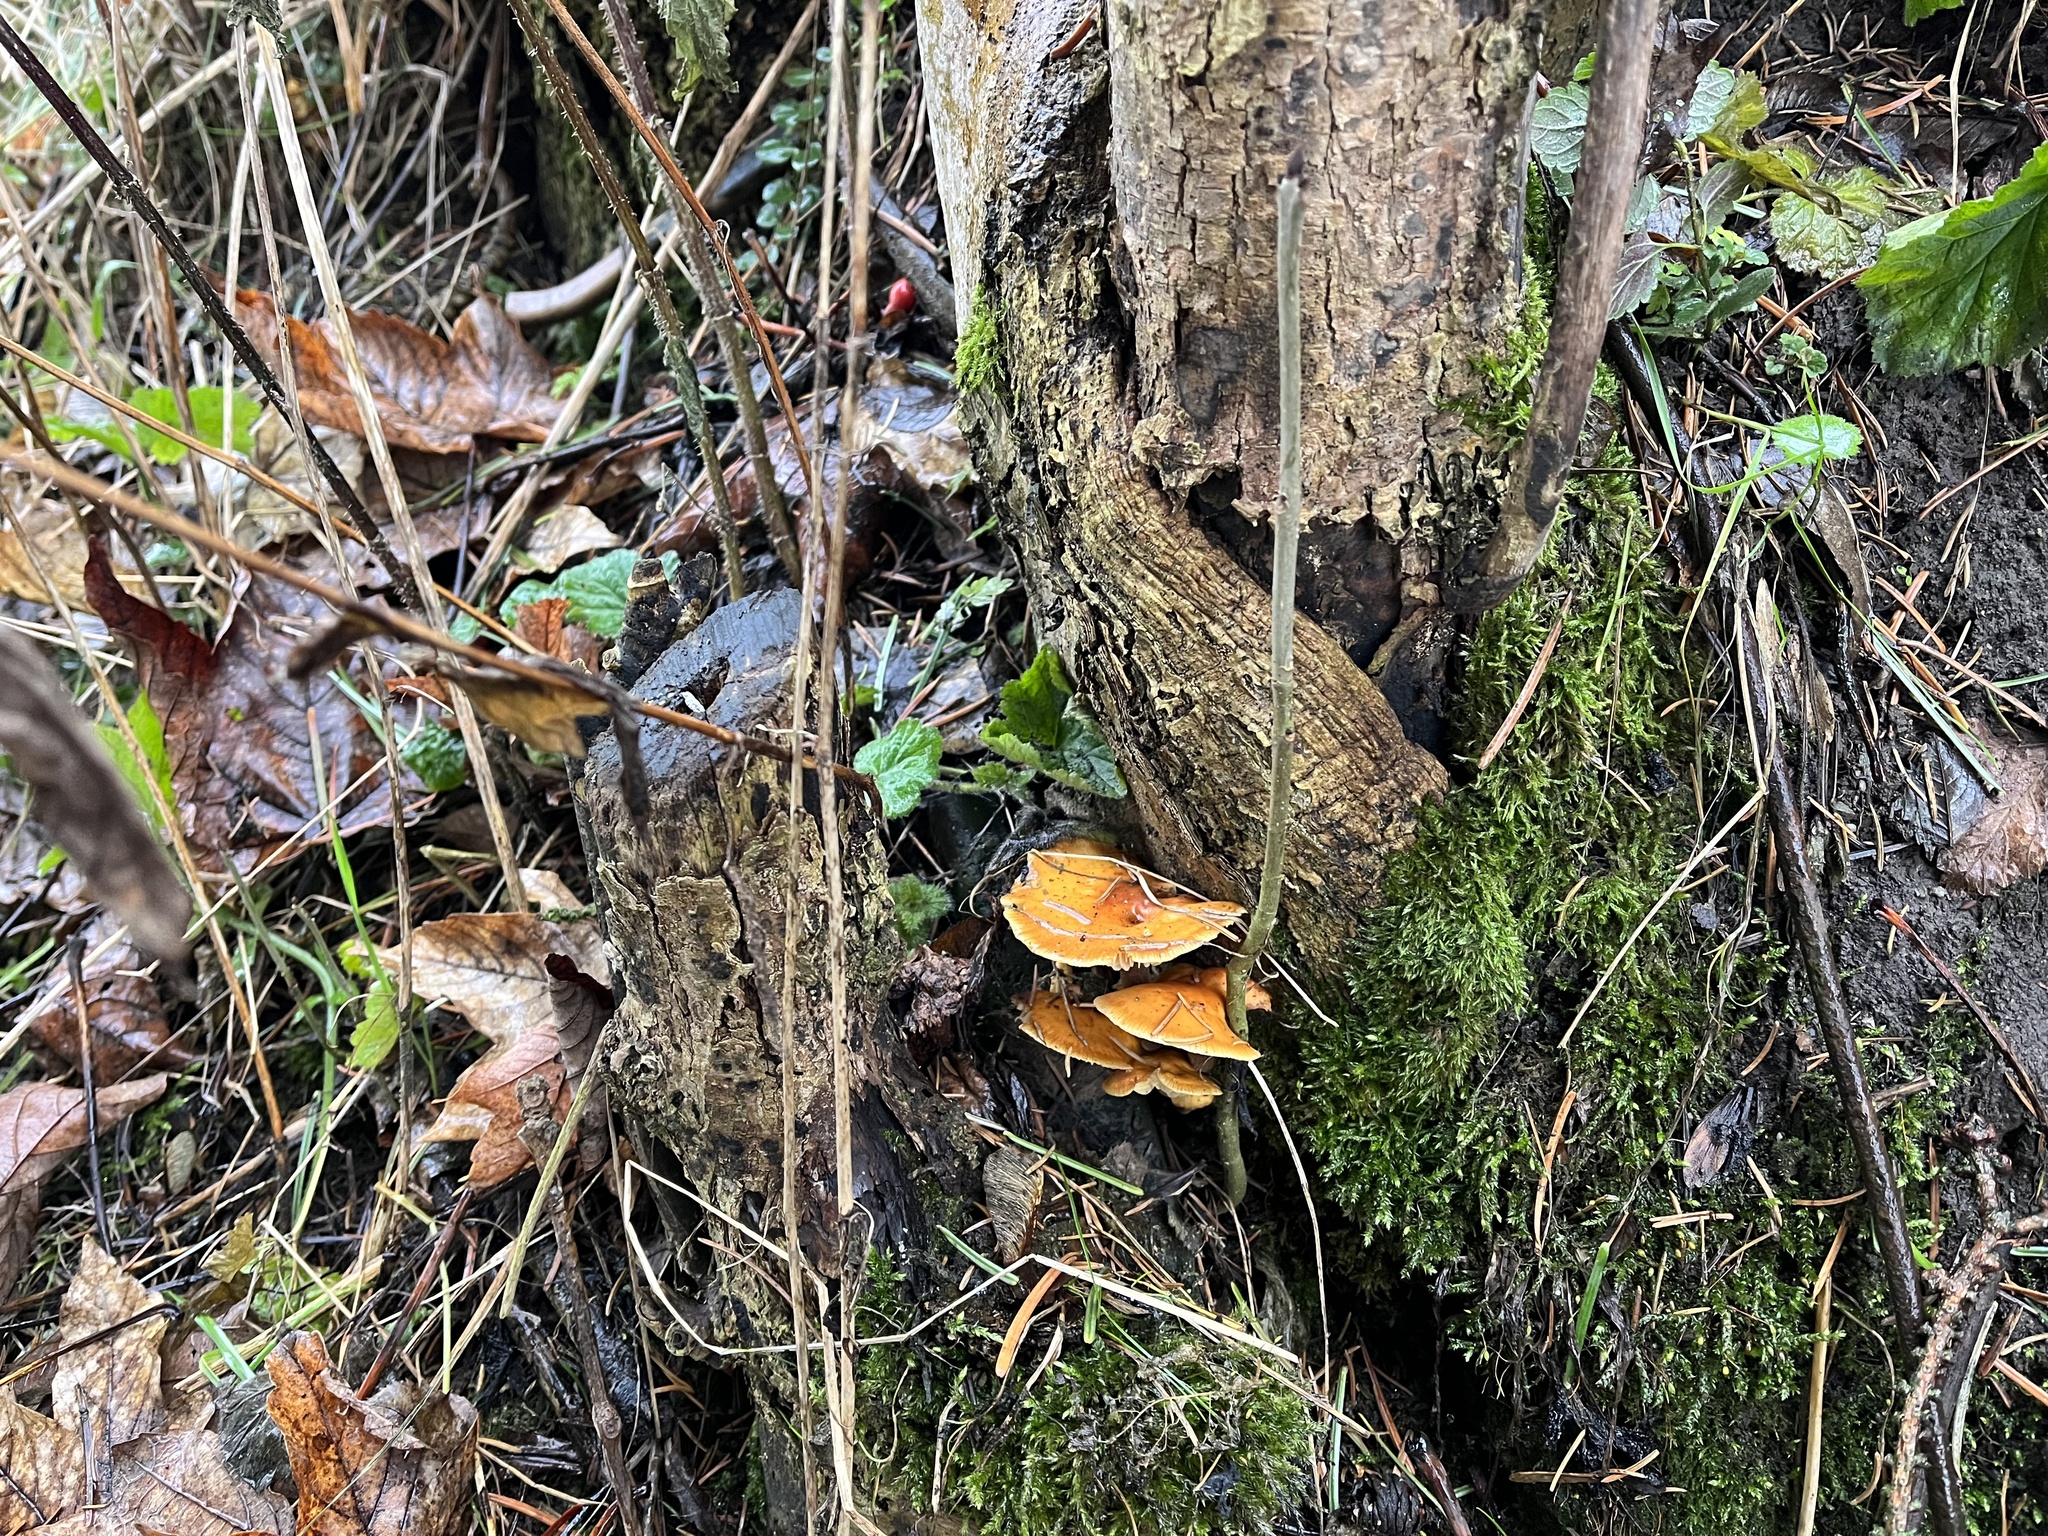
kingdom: Fungi
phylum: Basidiomycota
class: Agaricomycetes
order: Agaricales
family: Physalacriaceae
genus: Flammulina
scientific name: Flammulina
